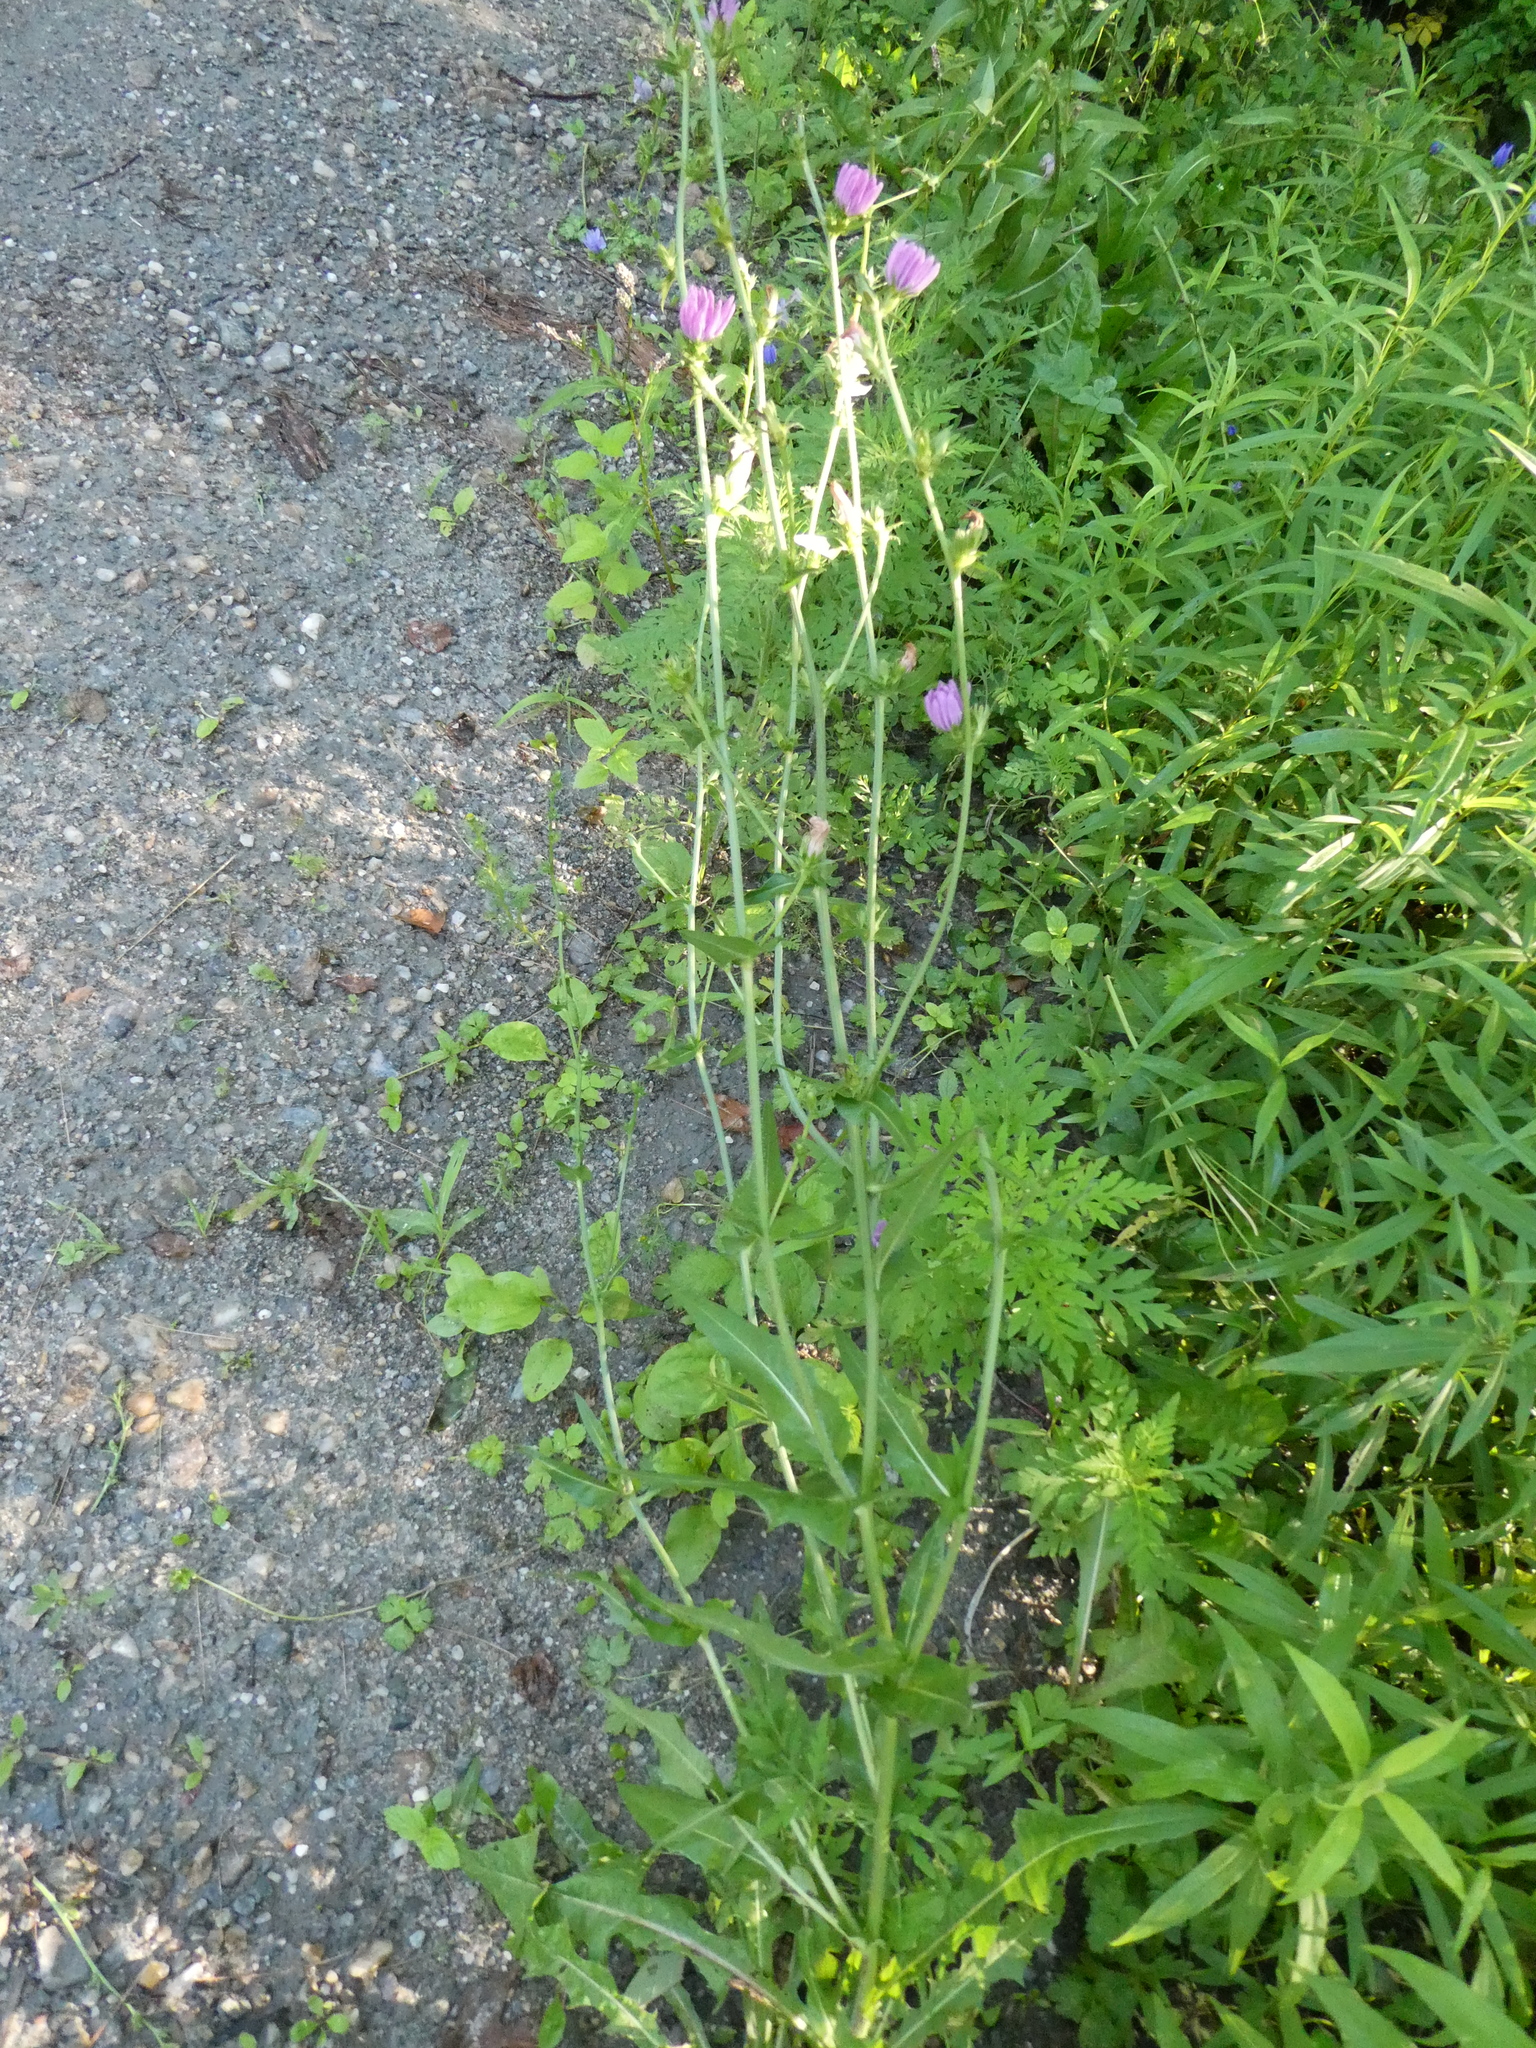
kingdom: Plantae
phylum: Tracheophyta
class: Magnoliopsida
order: Asterales
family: Asteraceae
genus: Cichorium
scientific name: Cichorium intybus
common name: Chicory
